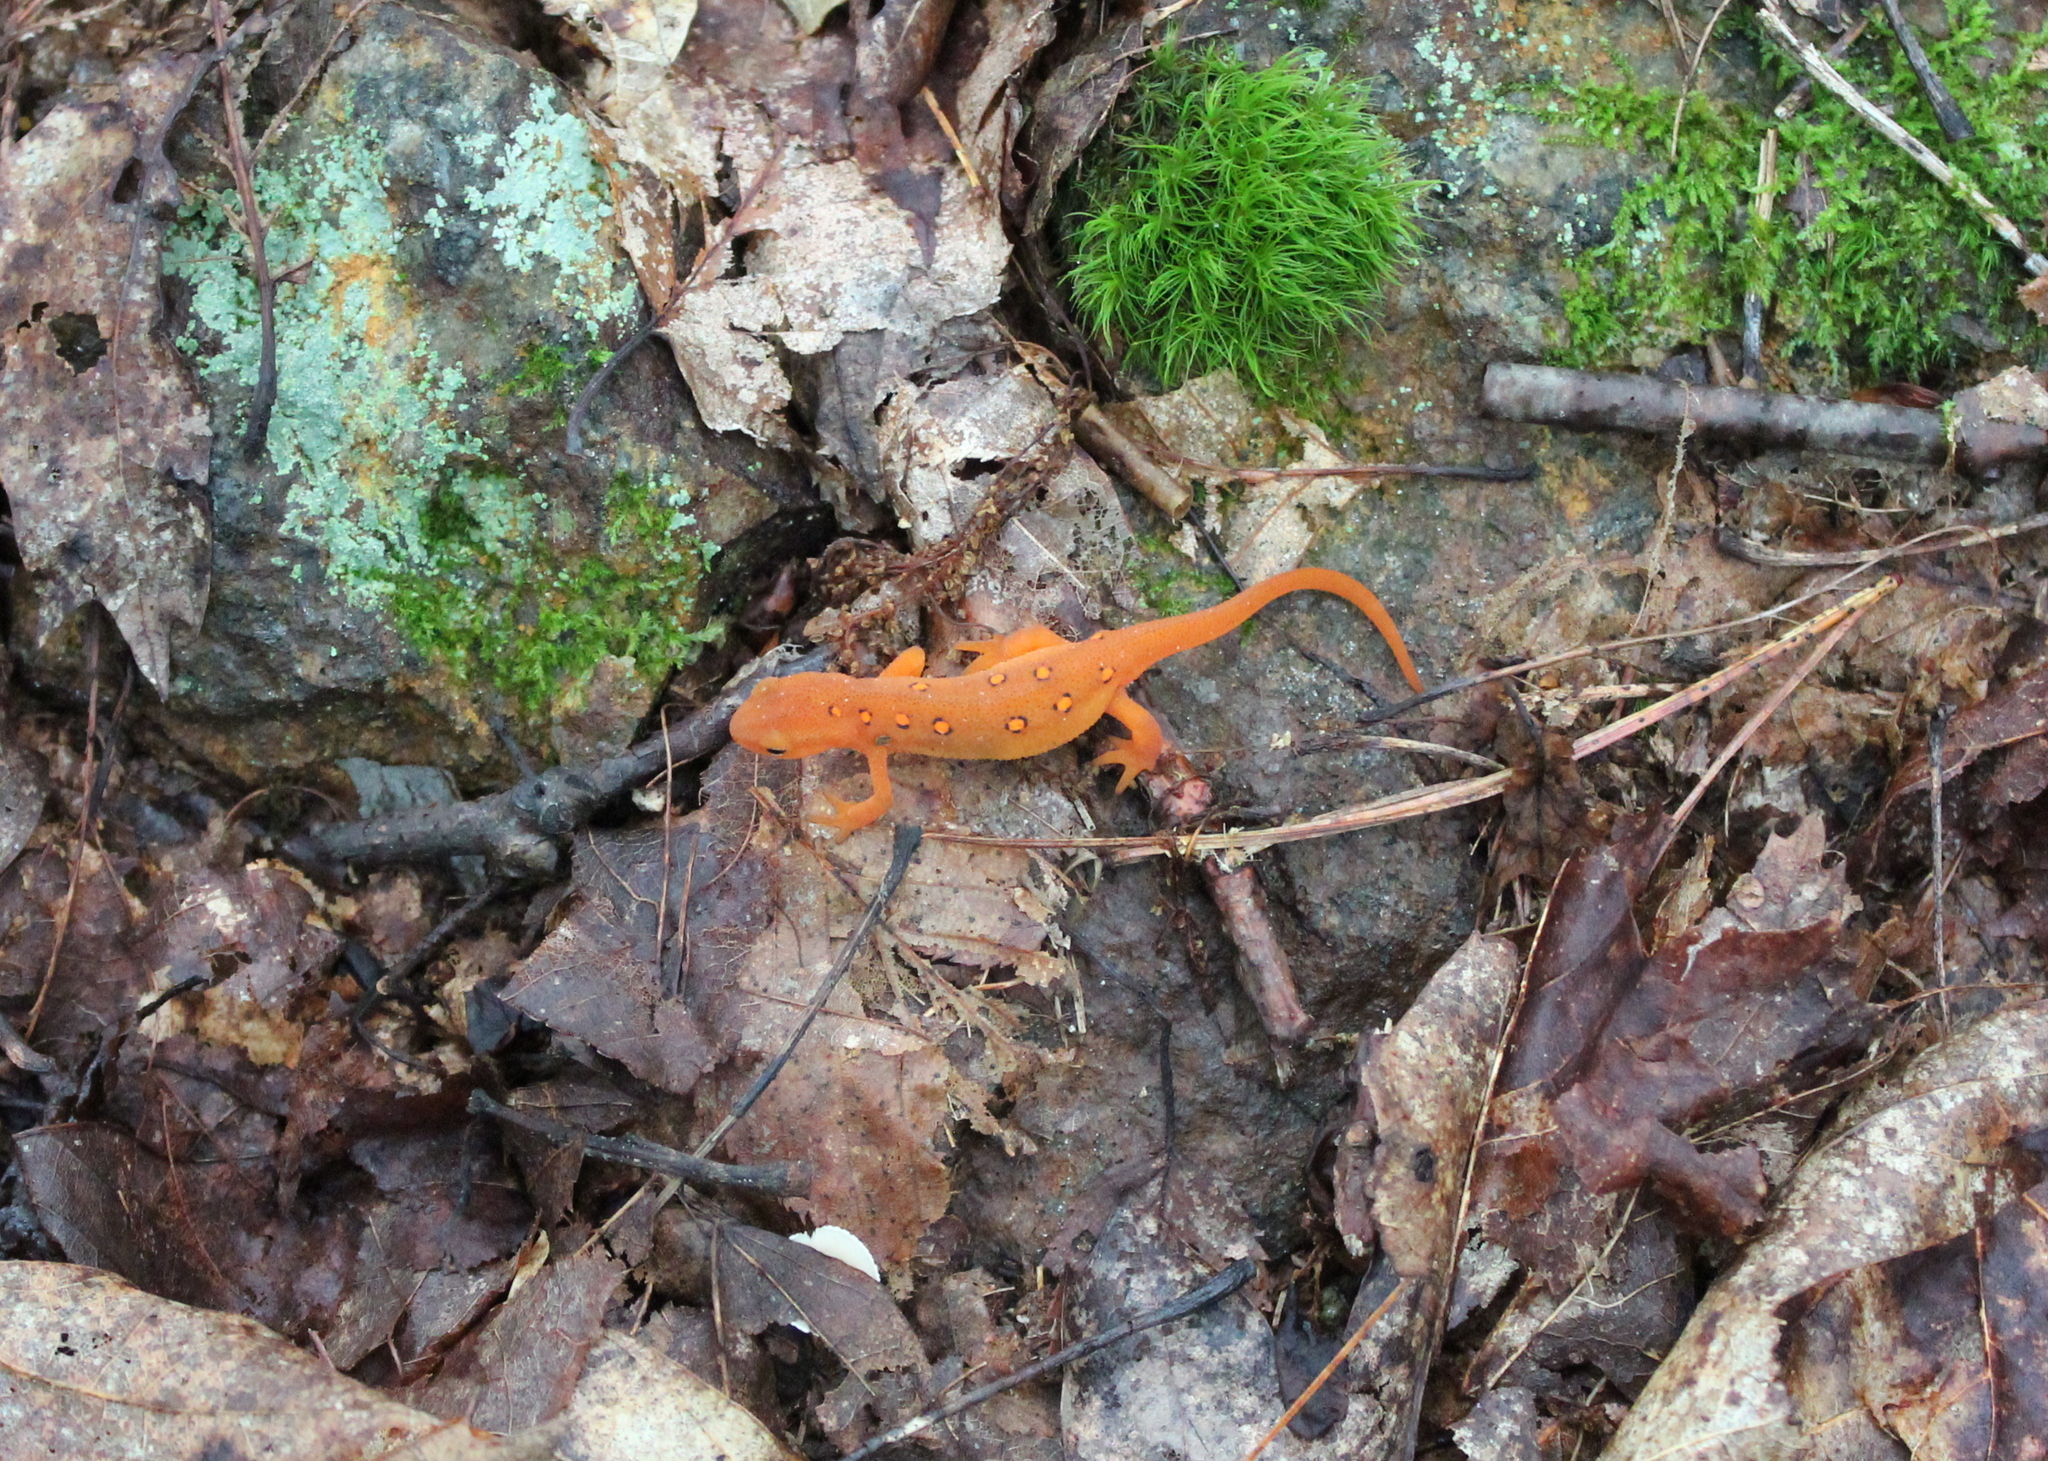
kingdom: Animalia
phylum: Chordata
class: Amphibia
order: Caudata
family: Salamandridae
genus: Notophthalmus
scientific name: Notophthalmus viridescens
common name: Eastern newt
